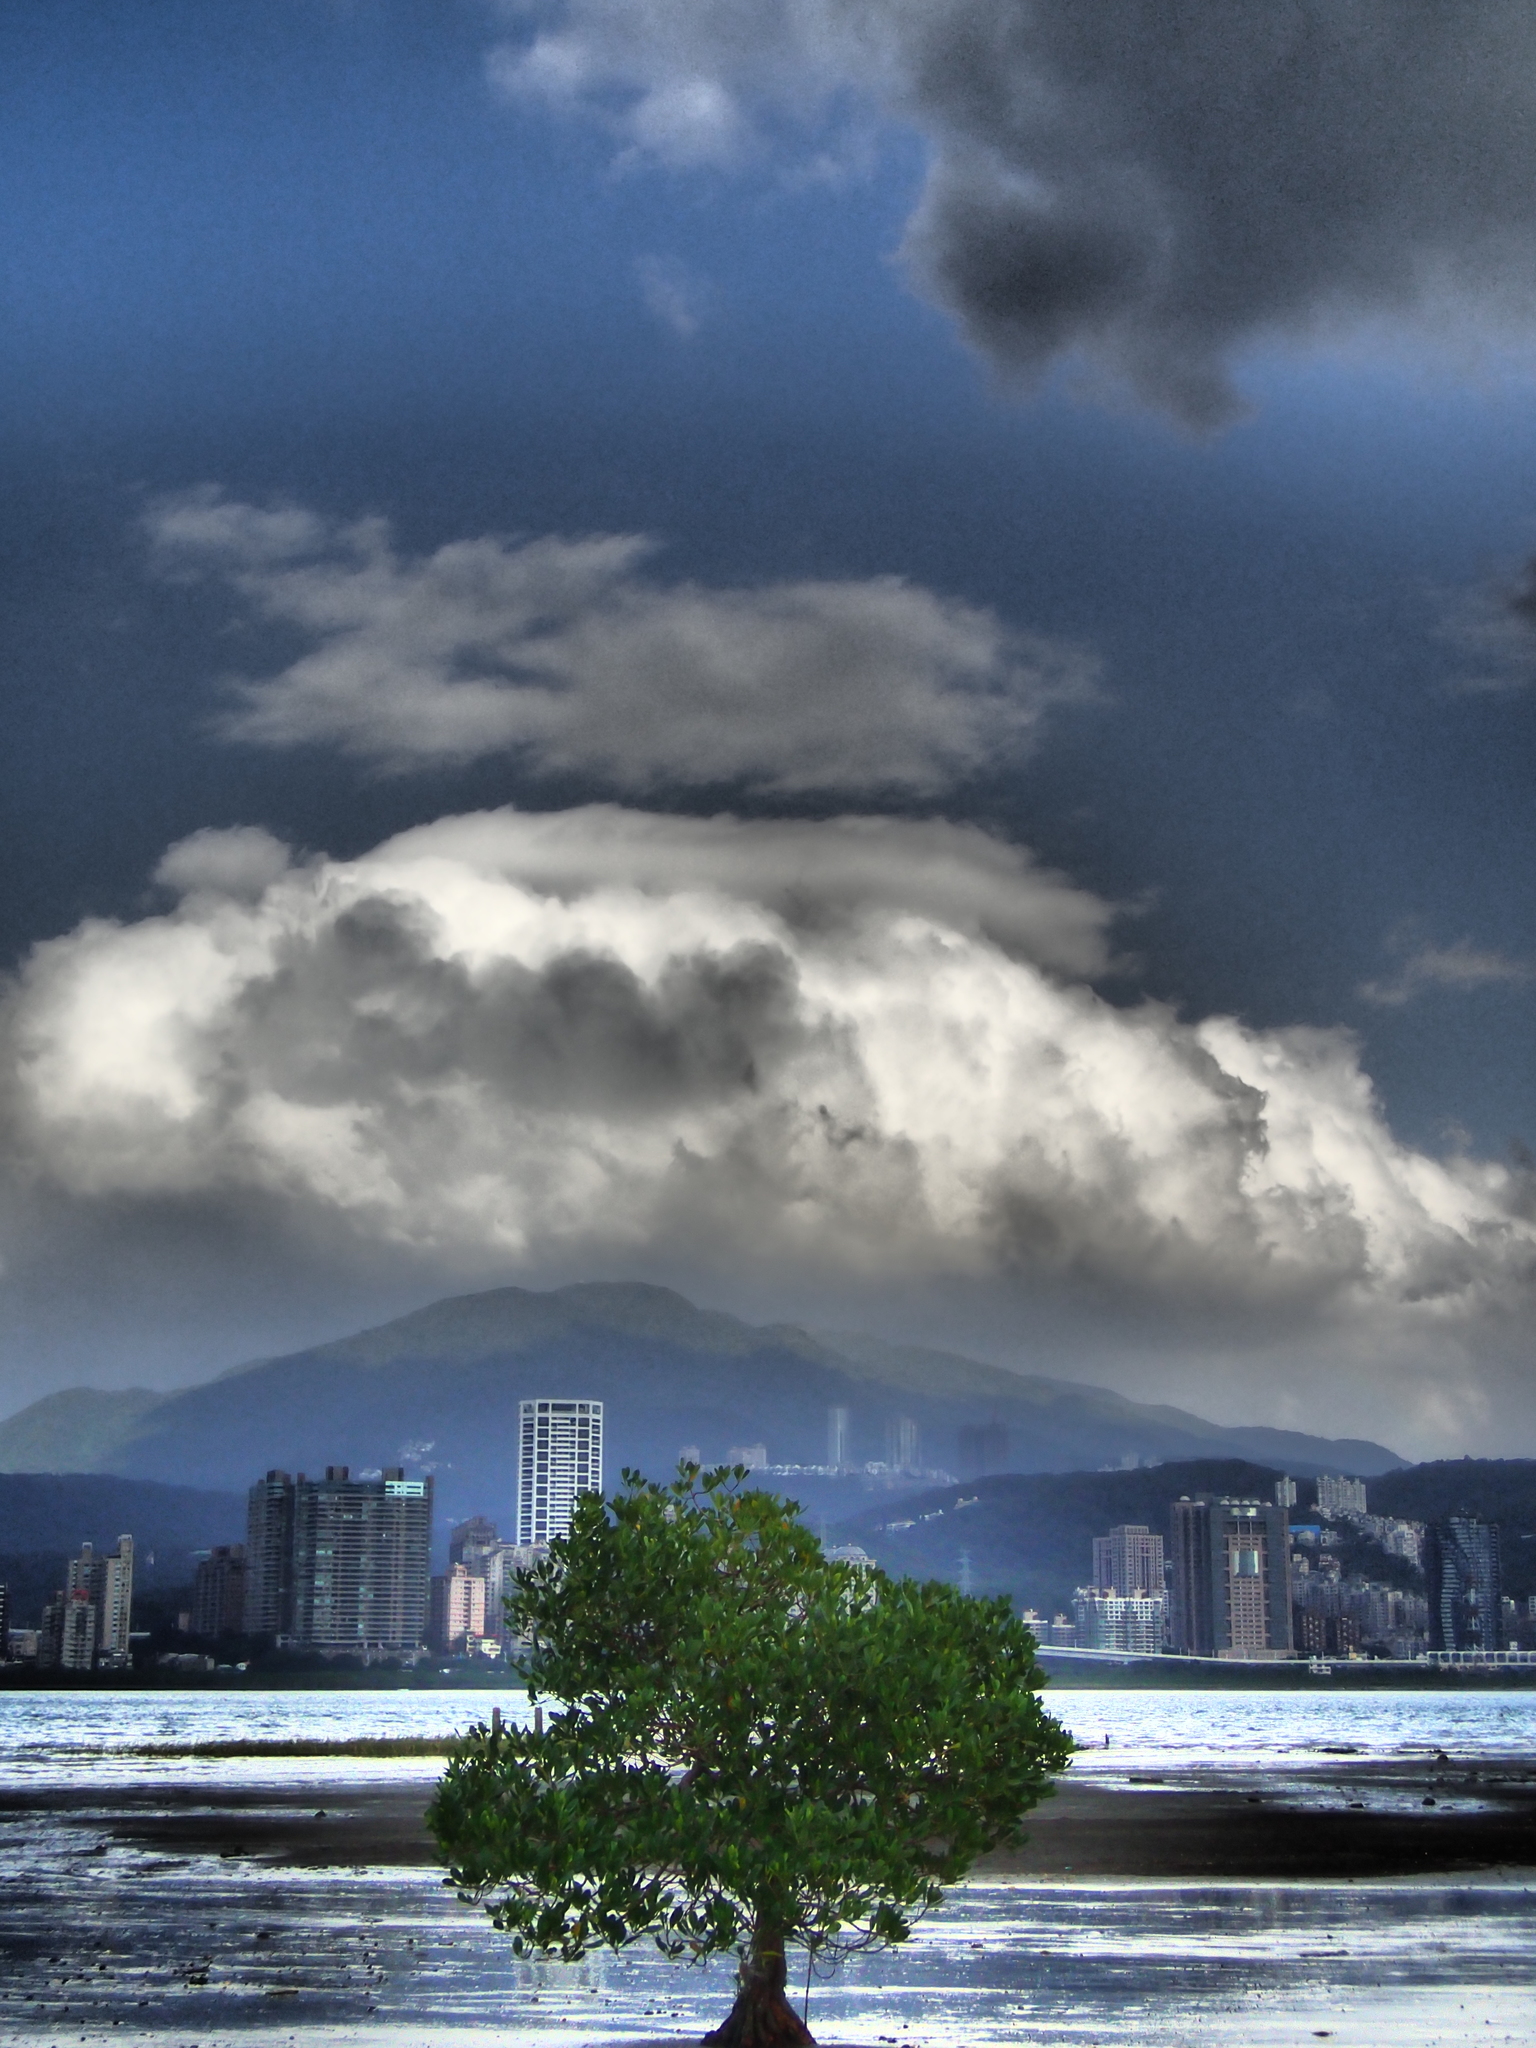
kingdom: Plantae
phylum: Tracheophyta
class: Magnoliopsida
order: Malpighiales
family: Rhizophoraceae
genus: Kandelia
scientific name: Kandelia obovata
